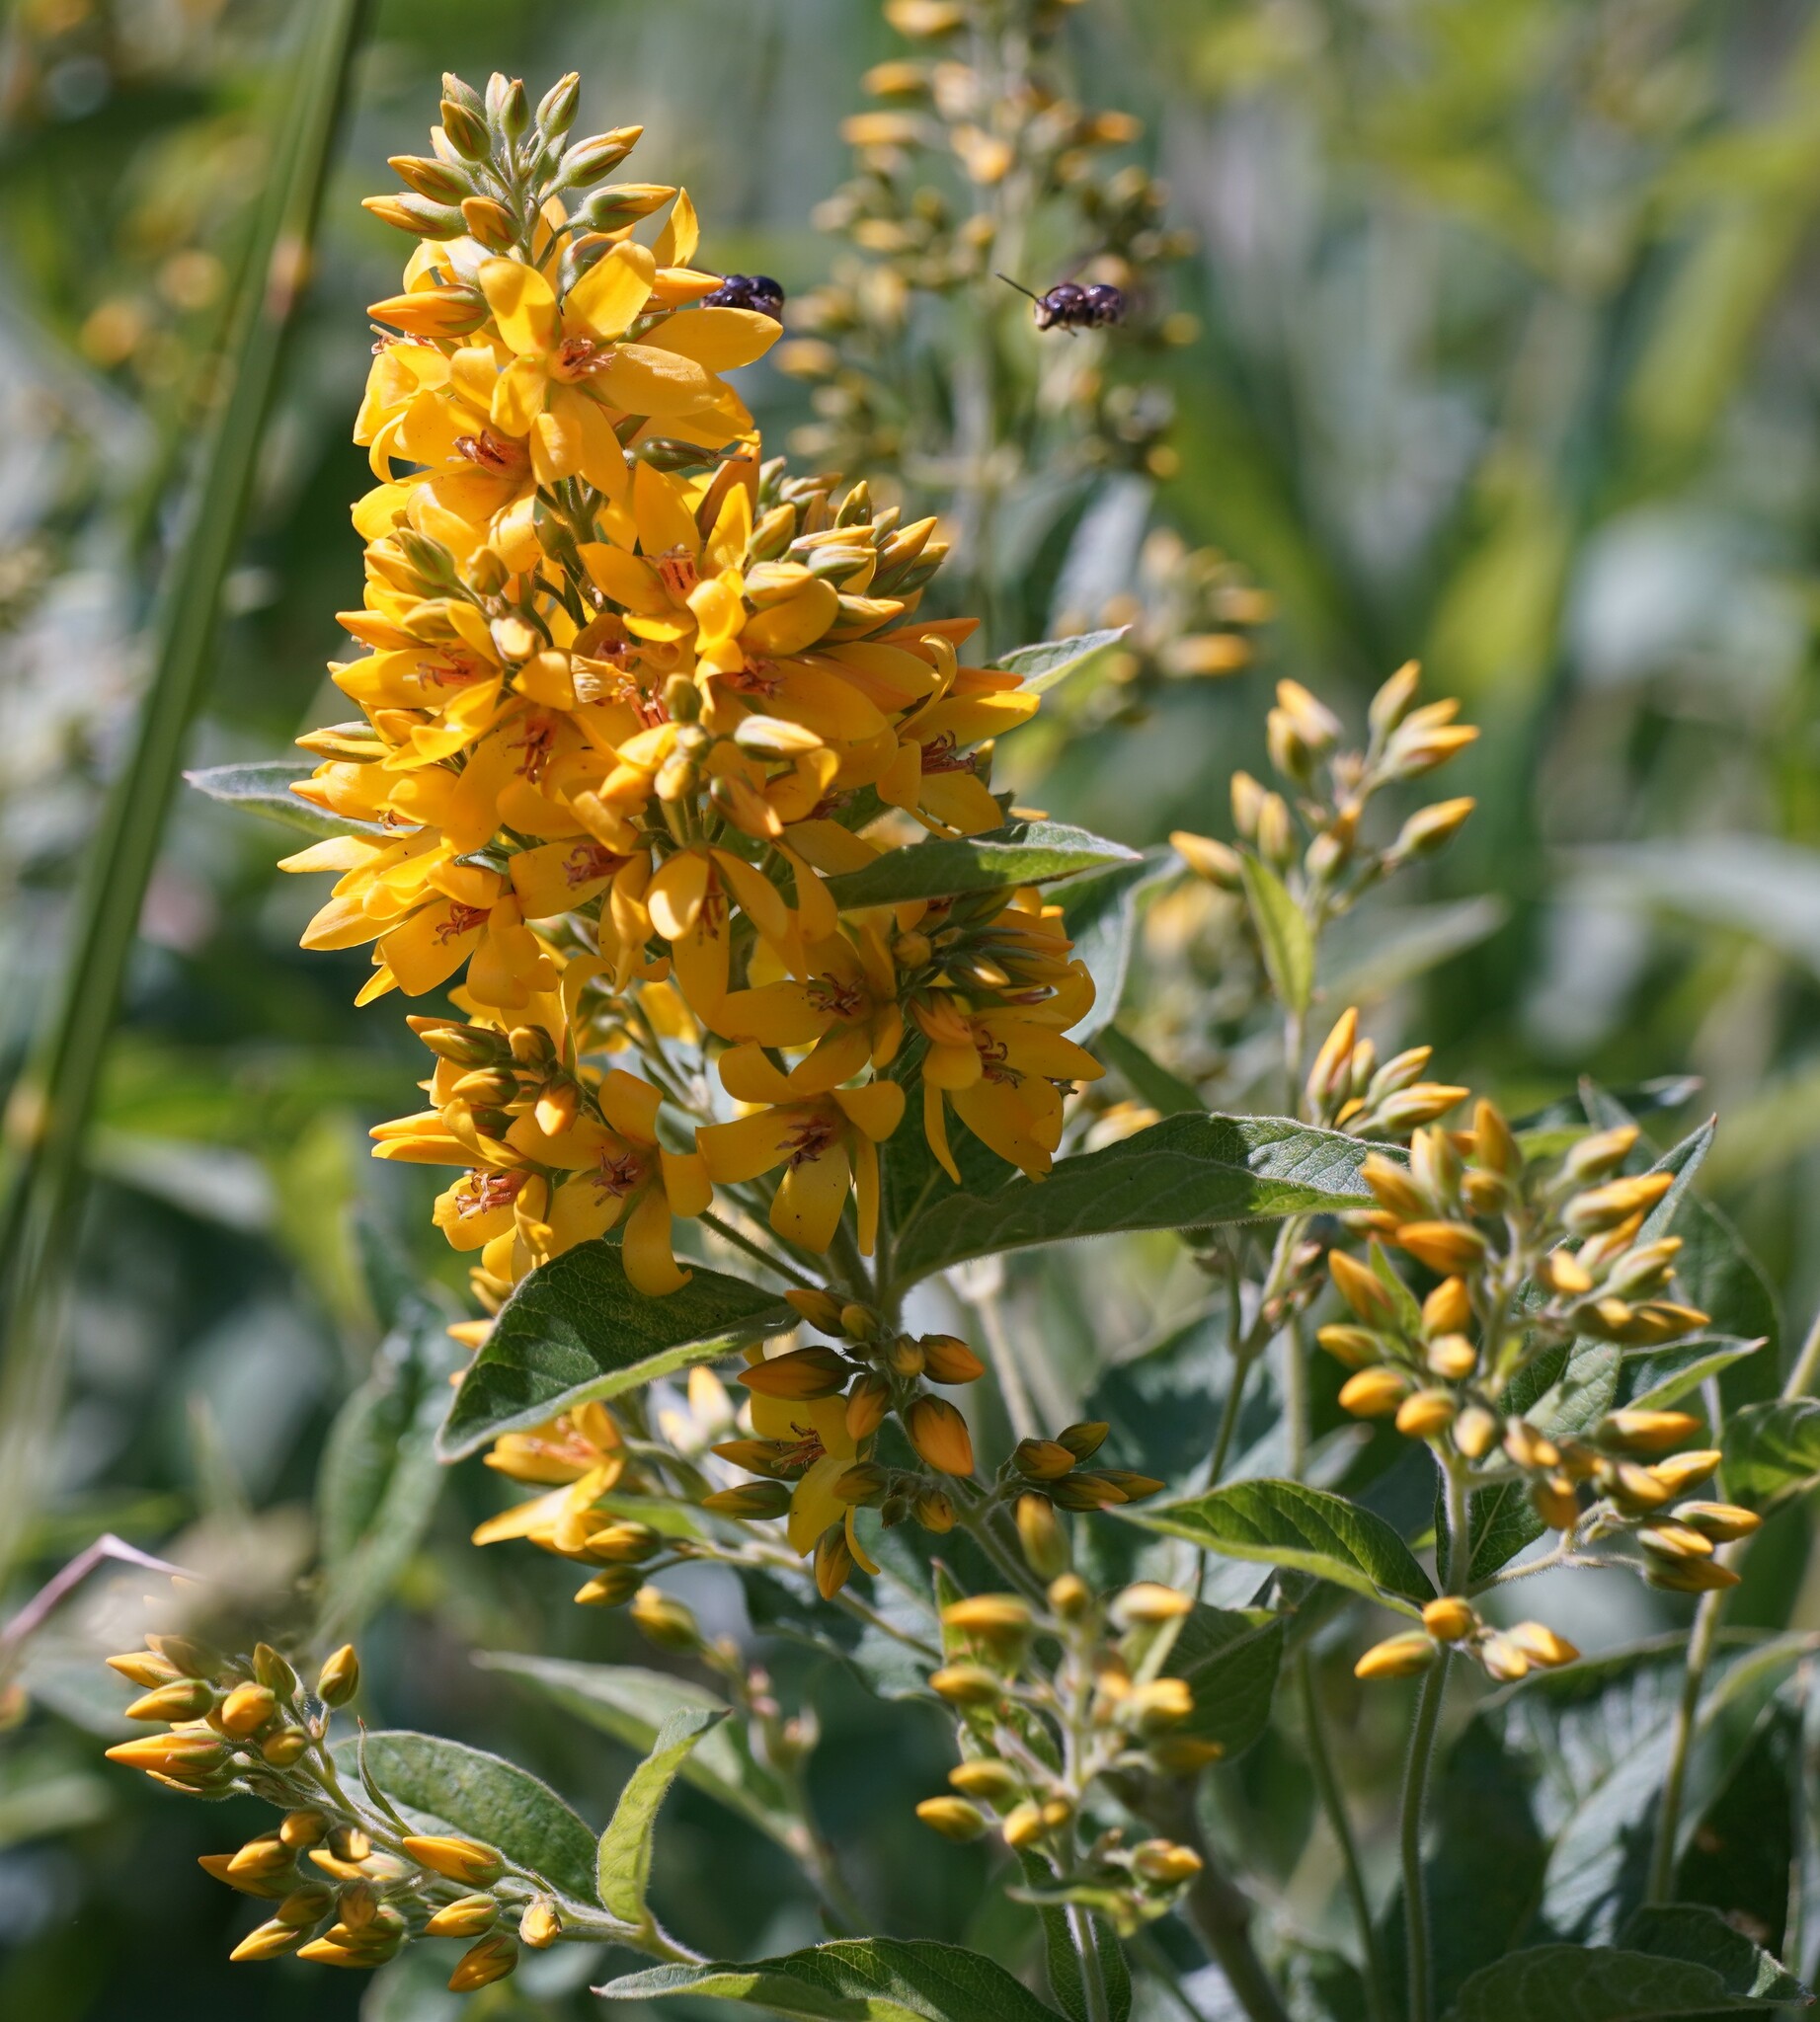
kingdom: Plantae
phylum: Tracheophyta
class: Magnoliopsida
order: Ericales
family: Primulaceae
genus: Lysimachia
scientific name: Lysimachia vulgaris
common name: Yellow loosestrife
